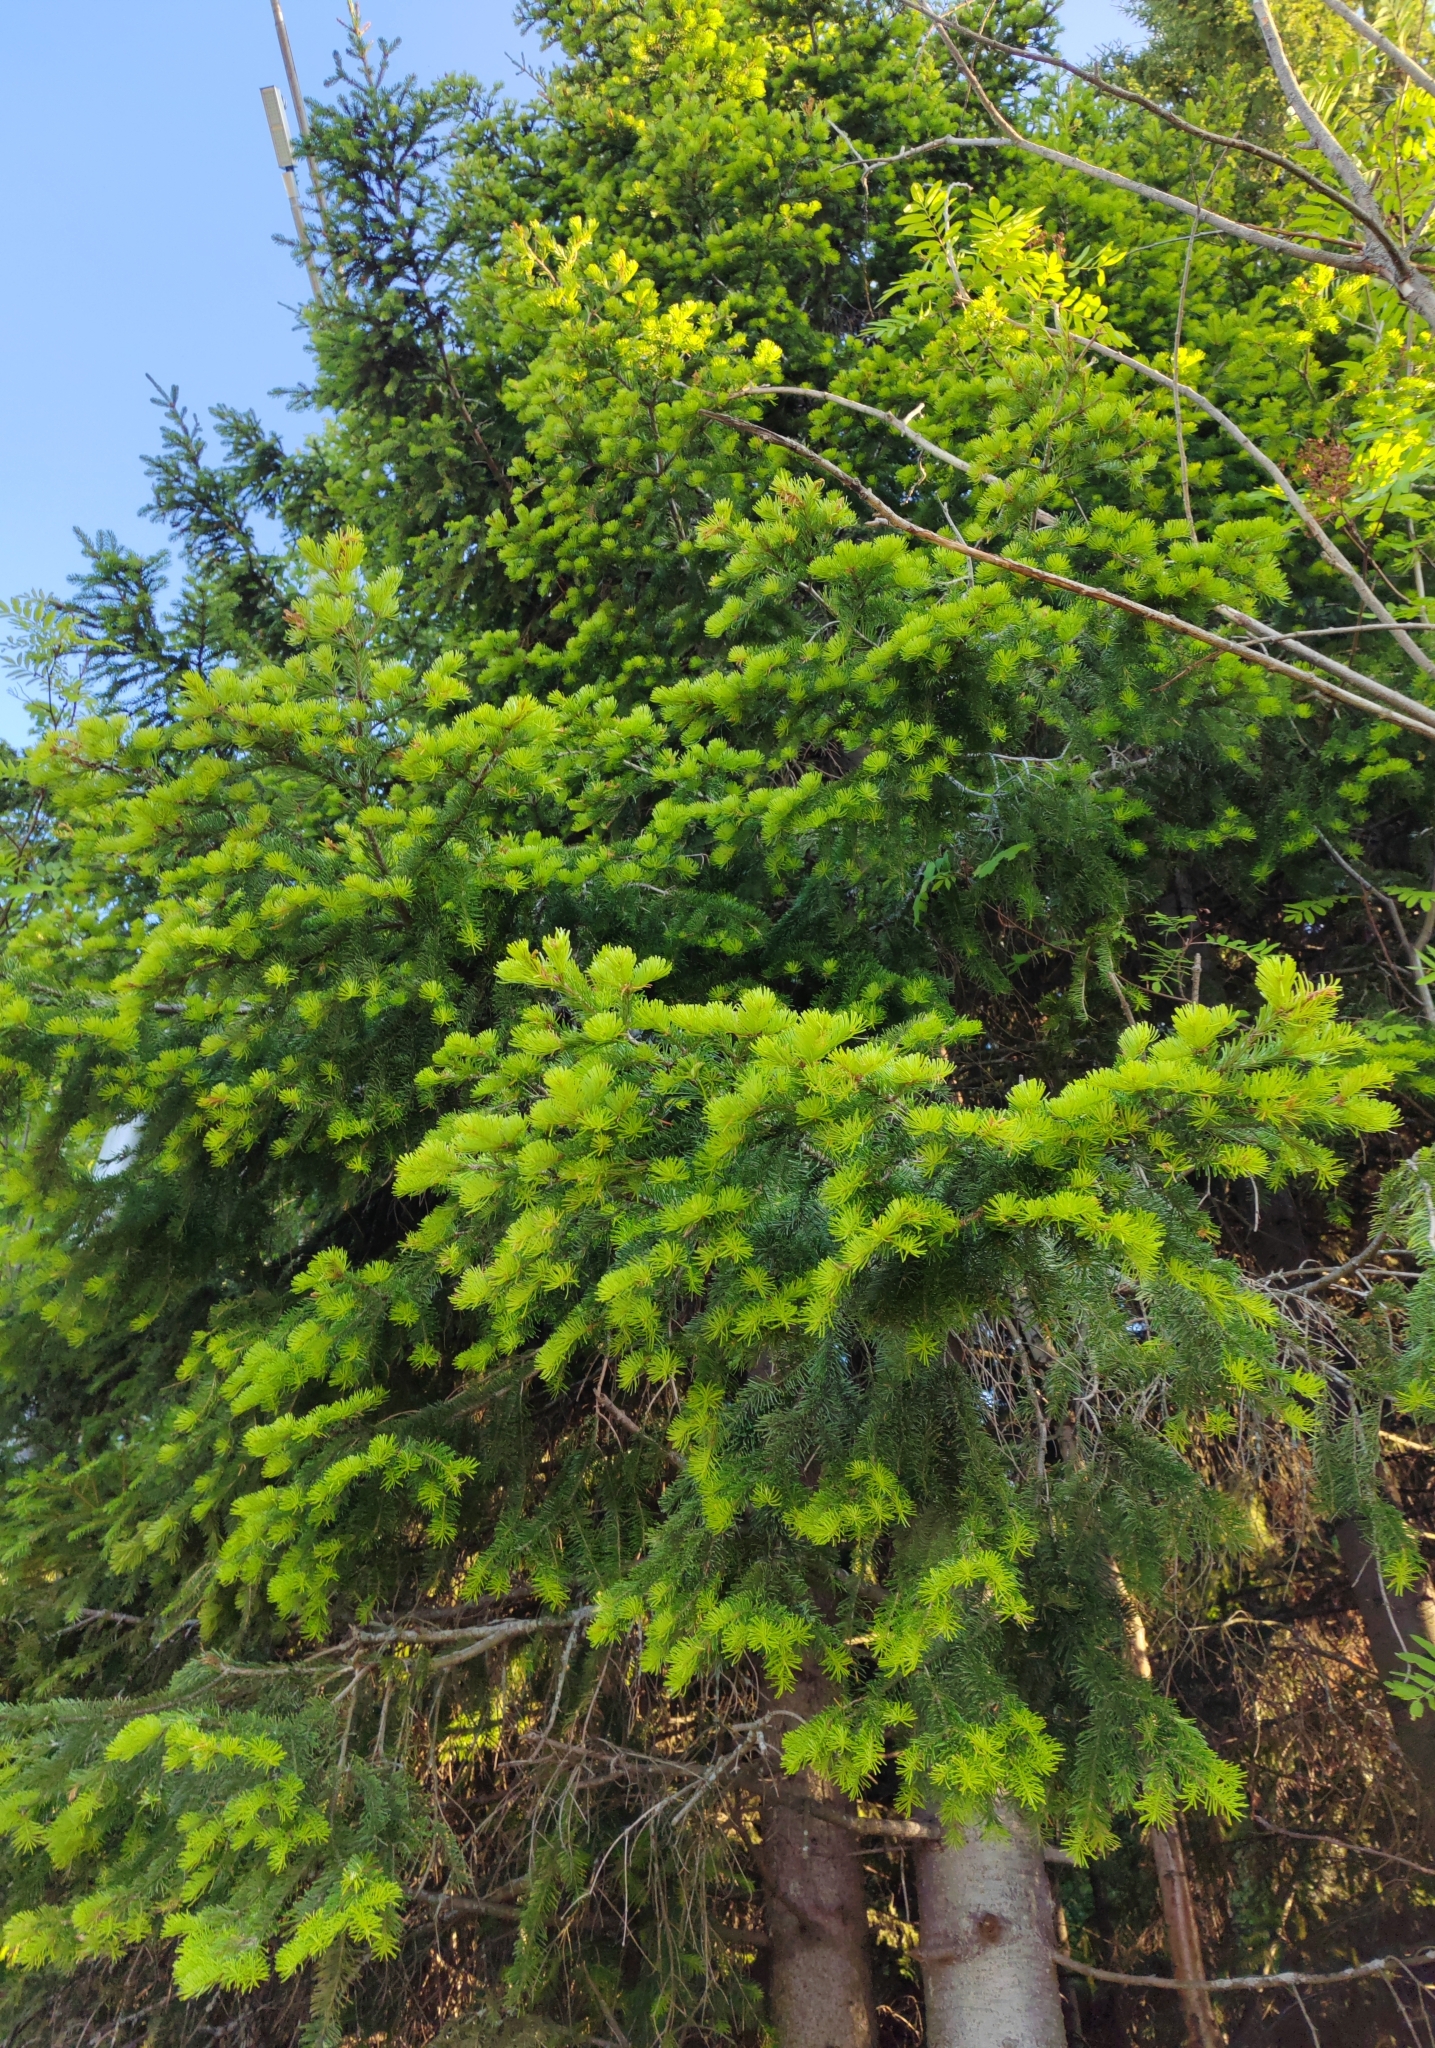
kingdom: Plantae
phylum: Tracheophyta
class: Pinopsida
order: Pinales
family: Pinaceae
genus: Abies
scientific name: Abies sibirica
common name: Siberian fir
